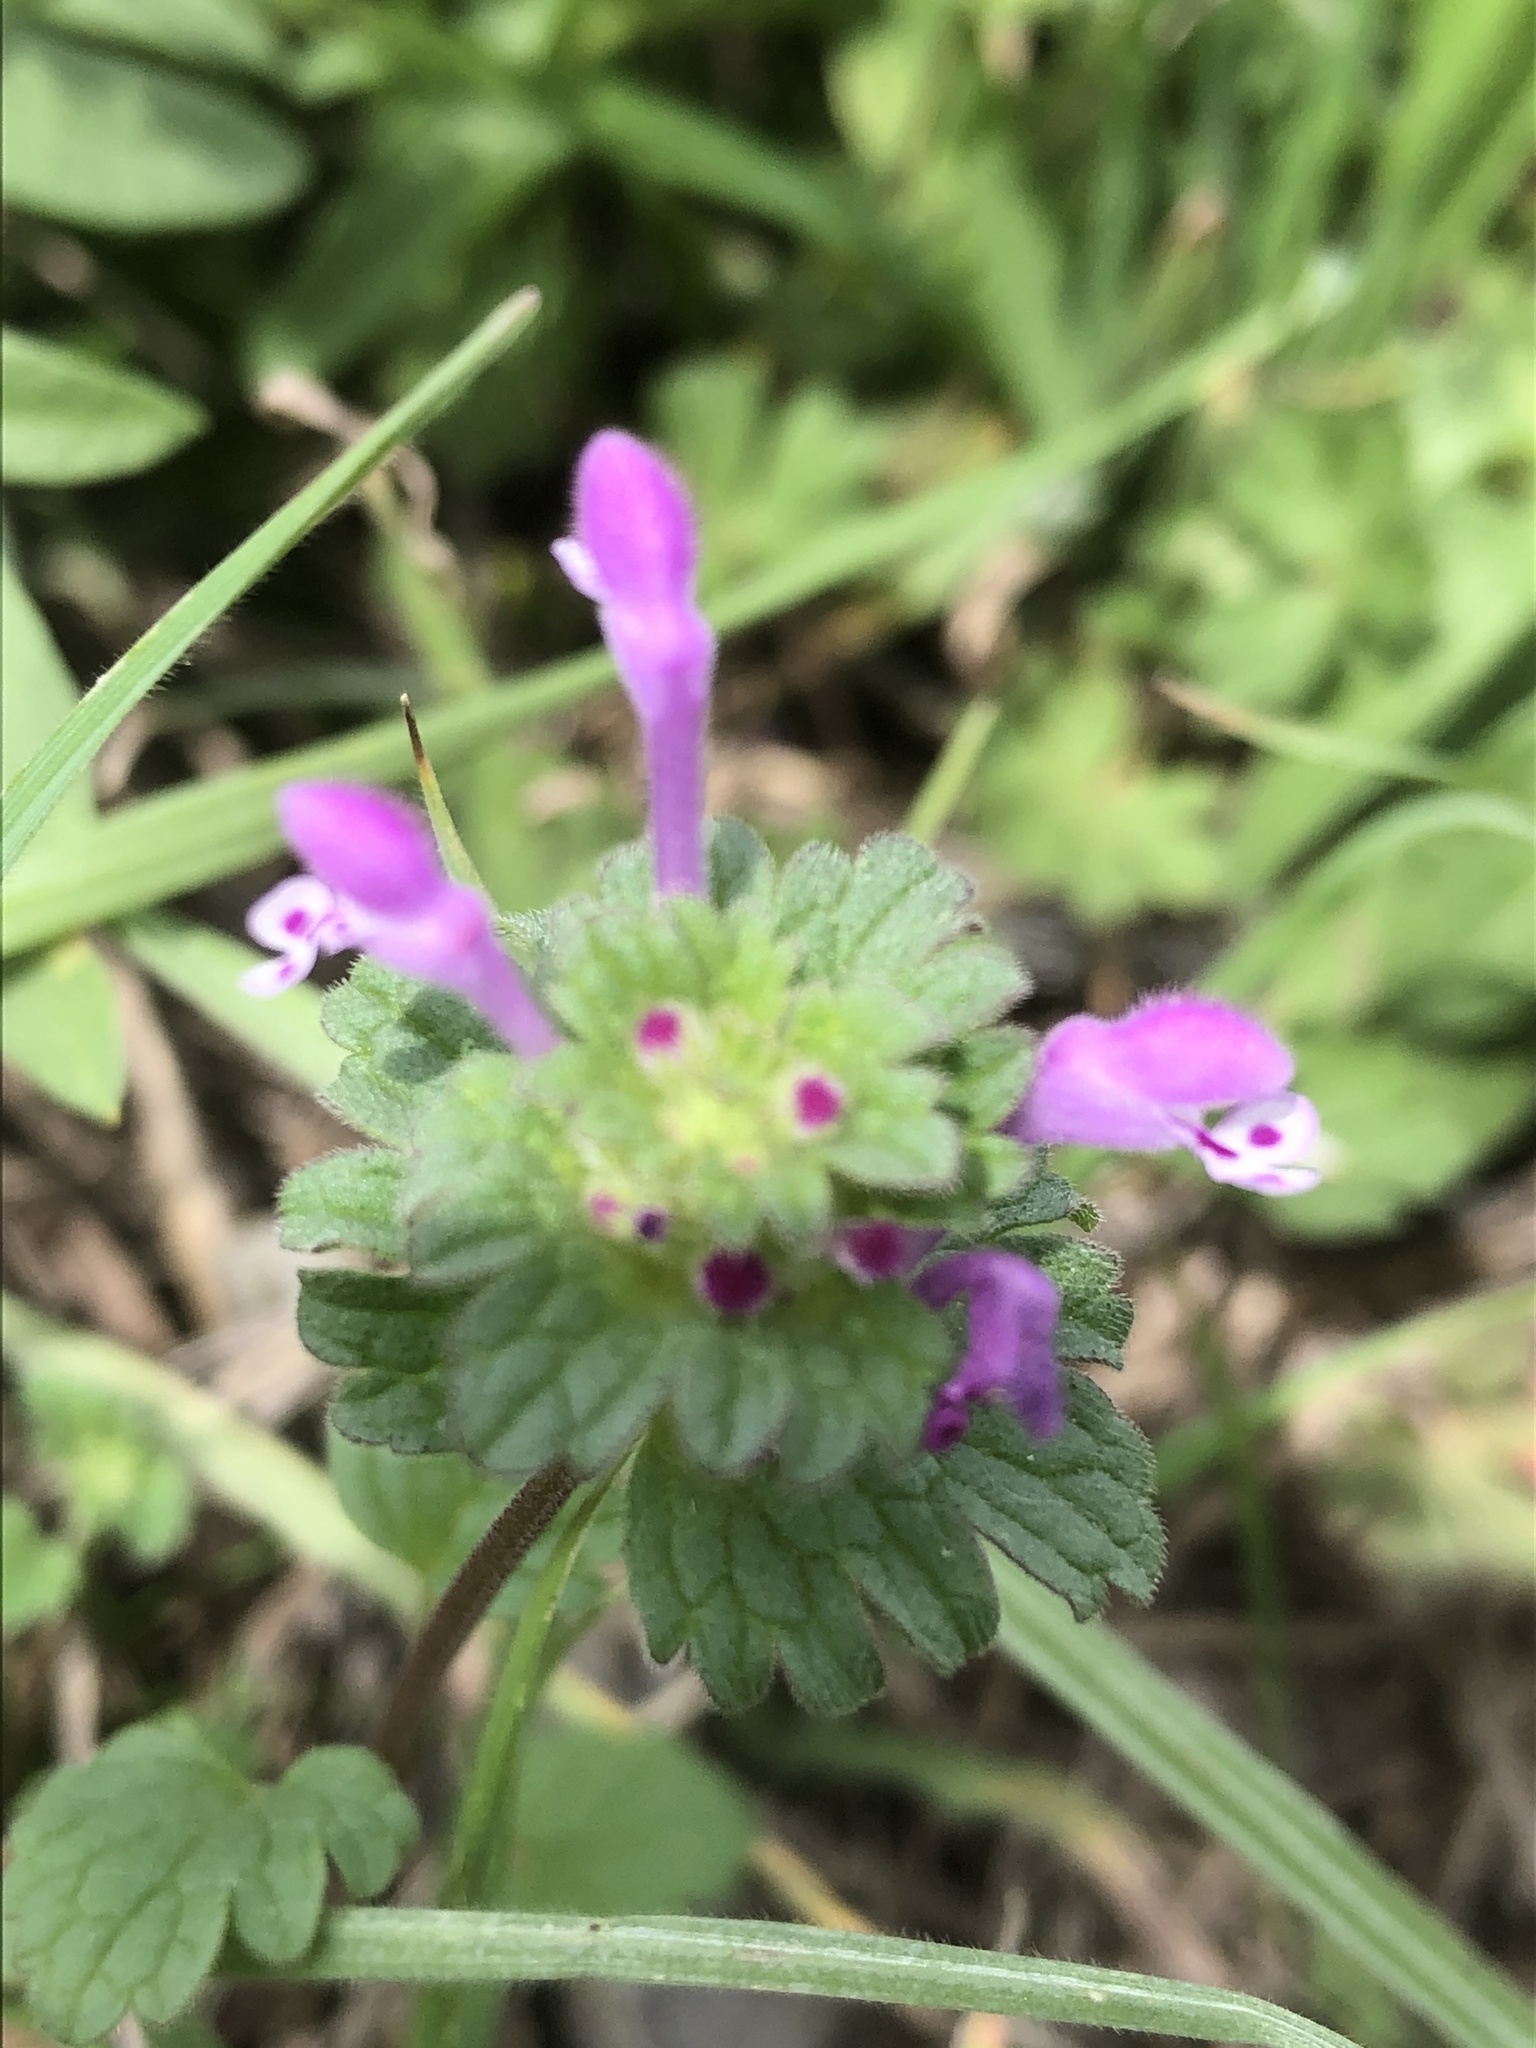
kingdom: Plantae
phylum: Tracheophyta
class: Magnoliopsida
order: Lamiales
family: Lamiaceae
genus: Lamium
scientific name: Lamium amplexicaule
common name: Henbit dead-nettle
